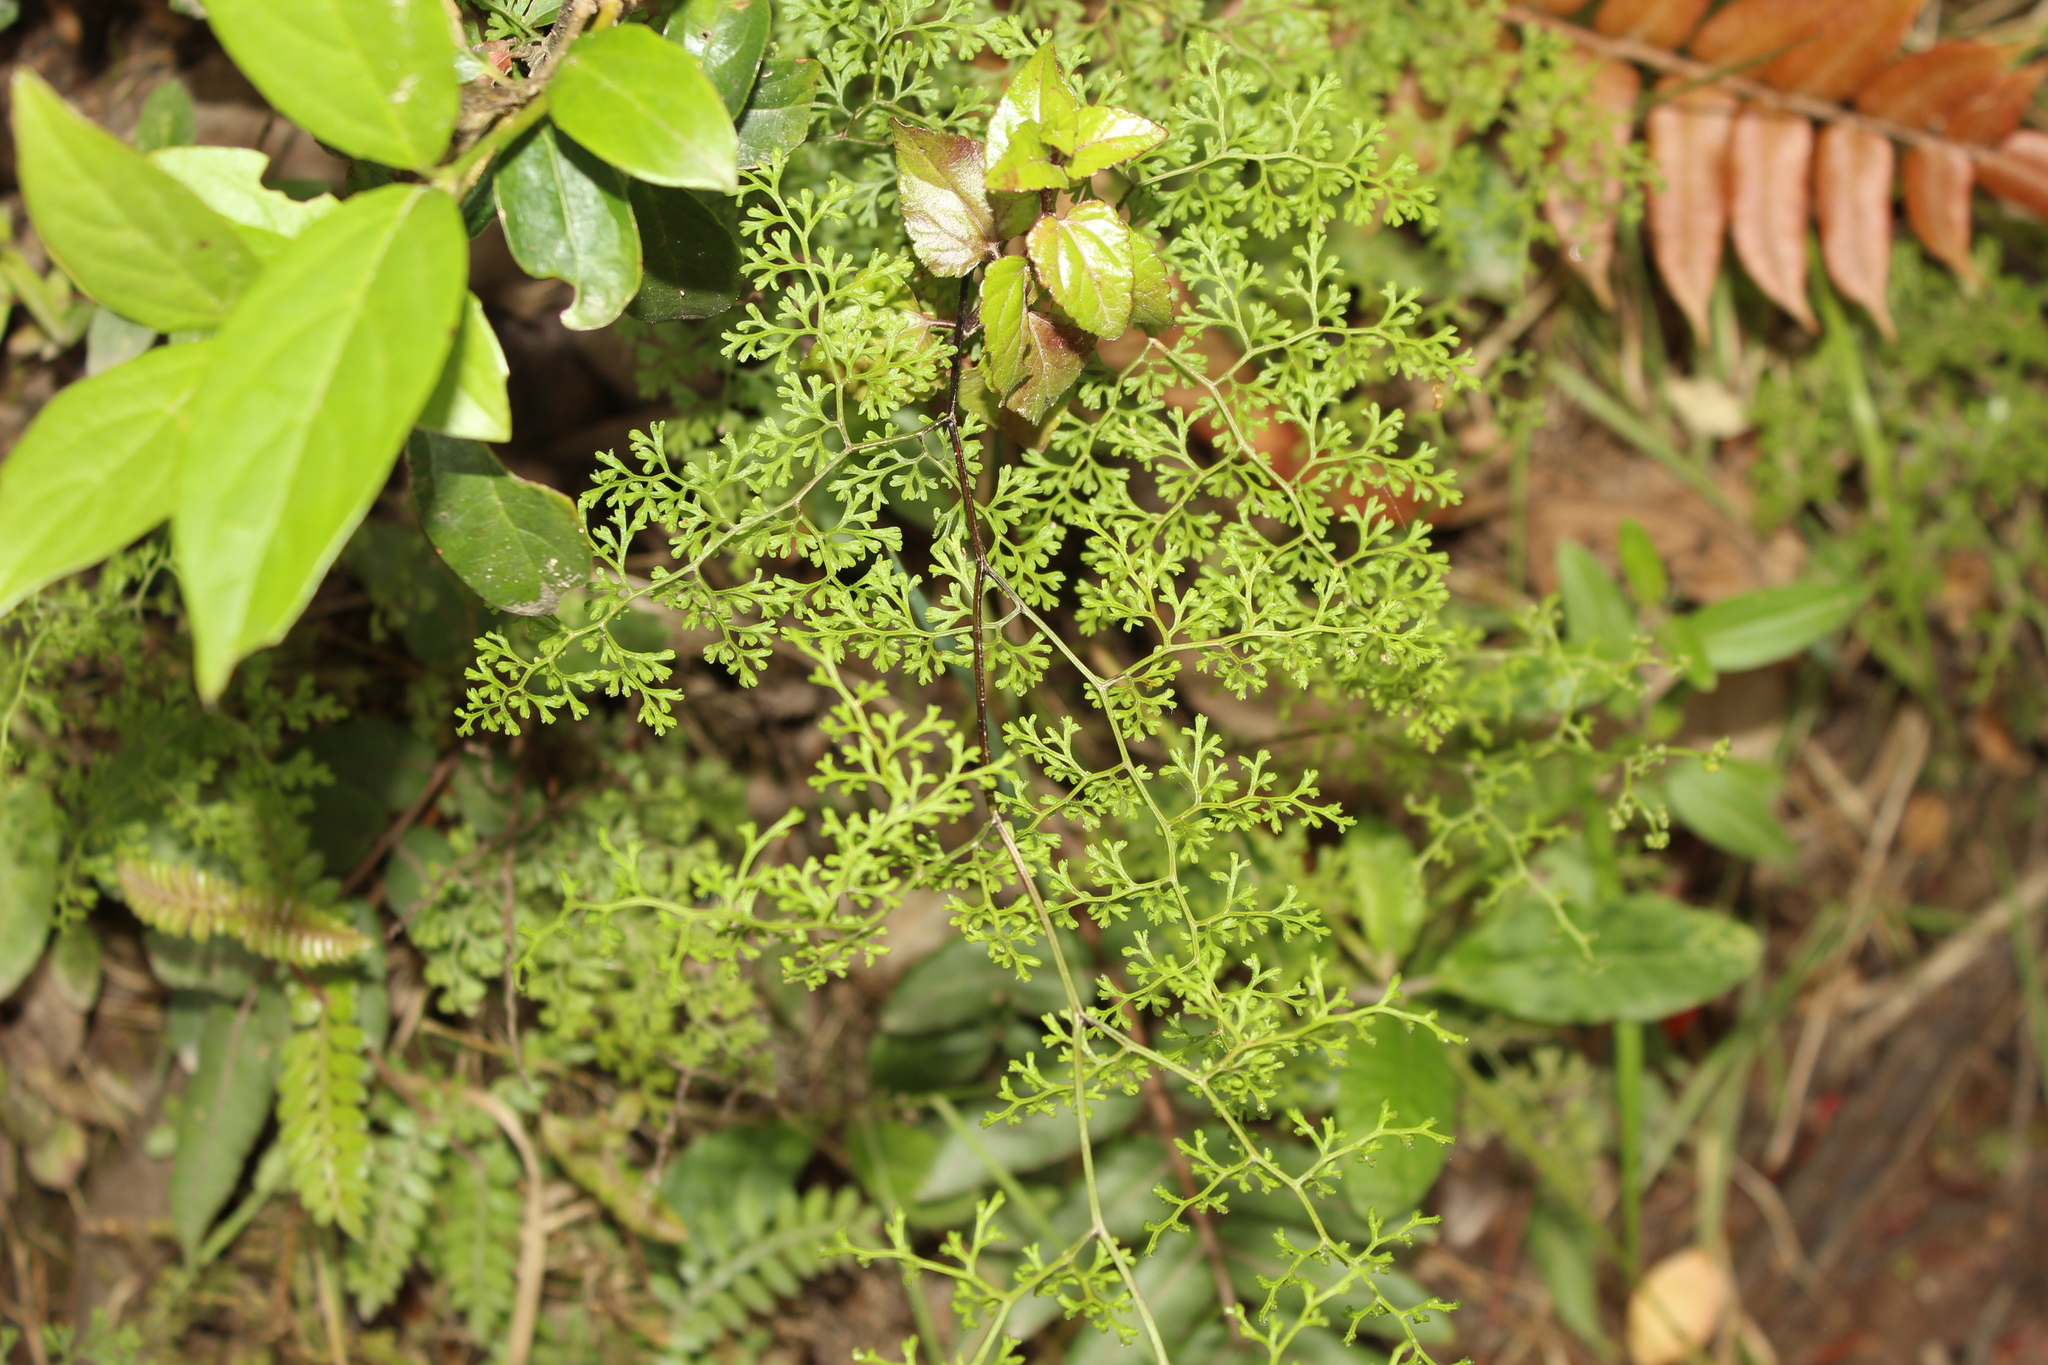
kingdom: Plantae
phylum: Tracheophyta
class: Polypodiopsida
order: Polypodiales
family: Pteridaceae
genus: Jamesonia
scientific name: Jamesonia flexuosa
